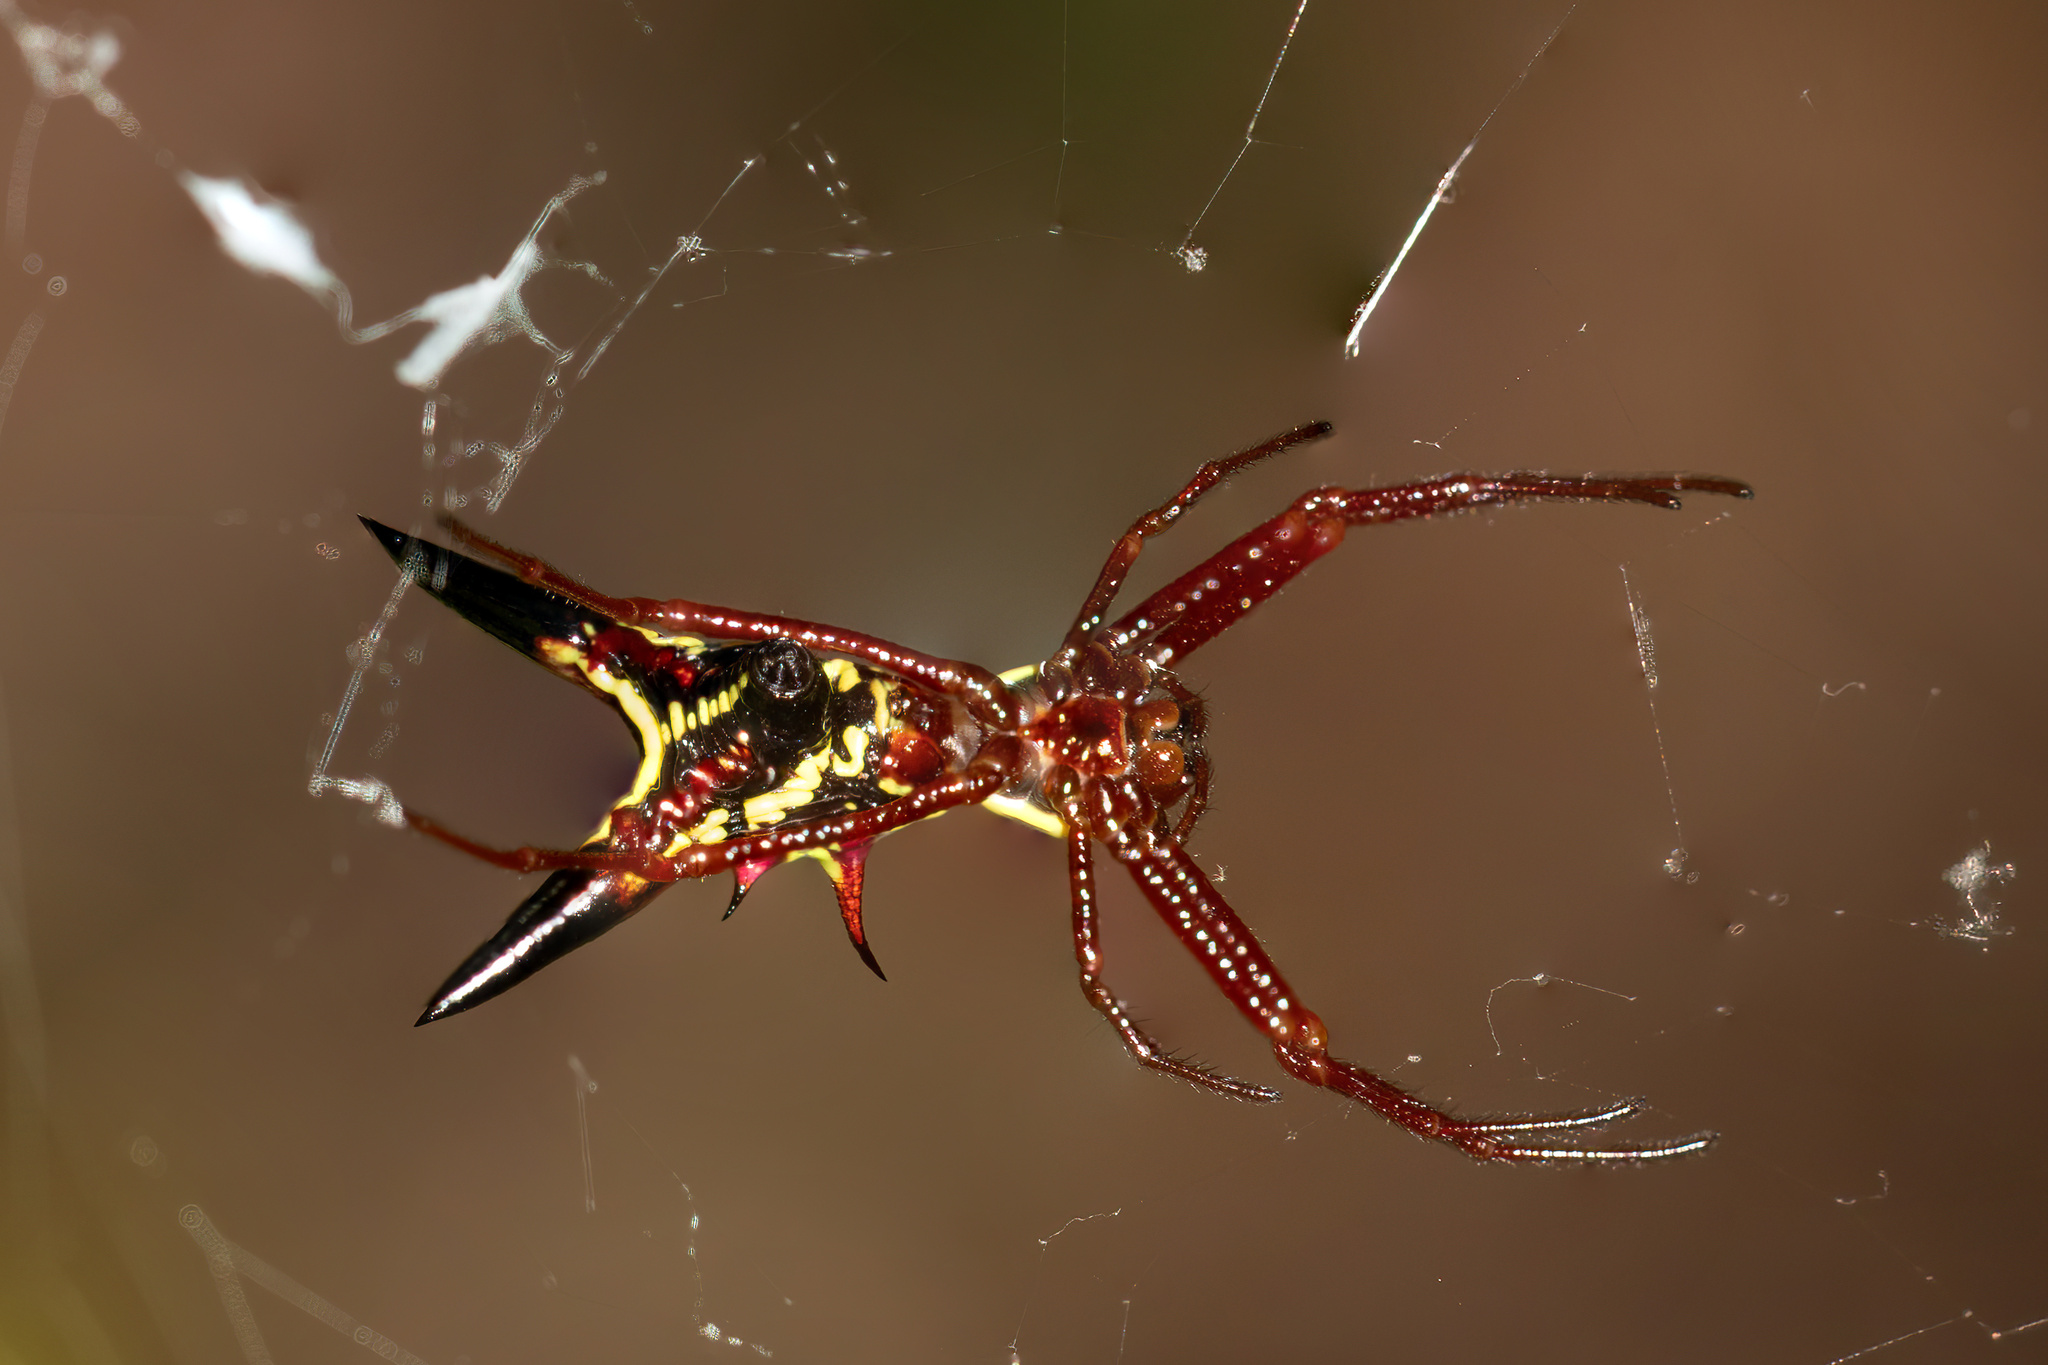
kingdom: Animalia
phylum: Arthropoda
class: Arachnida
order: Araneae
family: Araneidae
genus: Micrathena
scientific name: Micrathena sagittata
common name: Orb weavers
